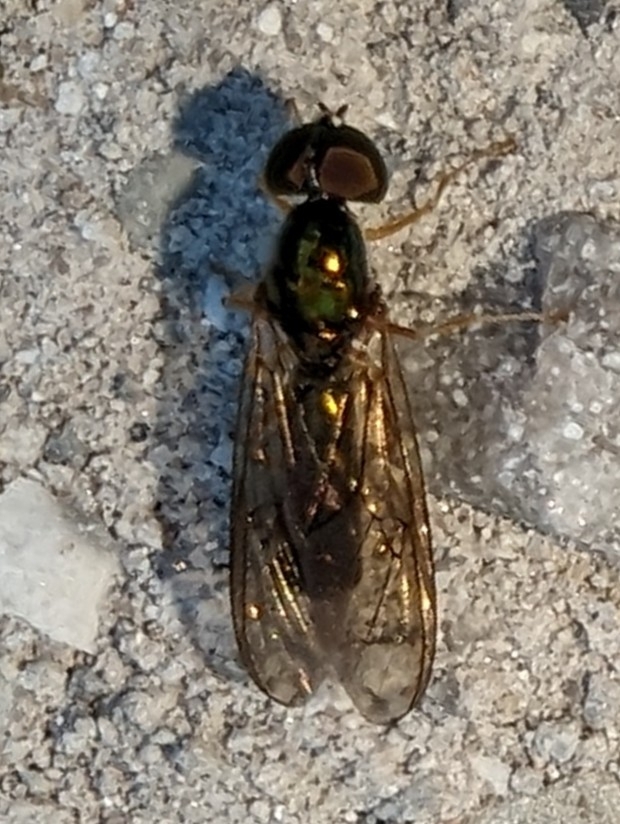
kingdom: Animalia
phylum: Arthropoda
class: Insecta
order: Diptera
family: Stratiomyidae
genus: Sargus
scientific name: Sargus fasciatus
